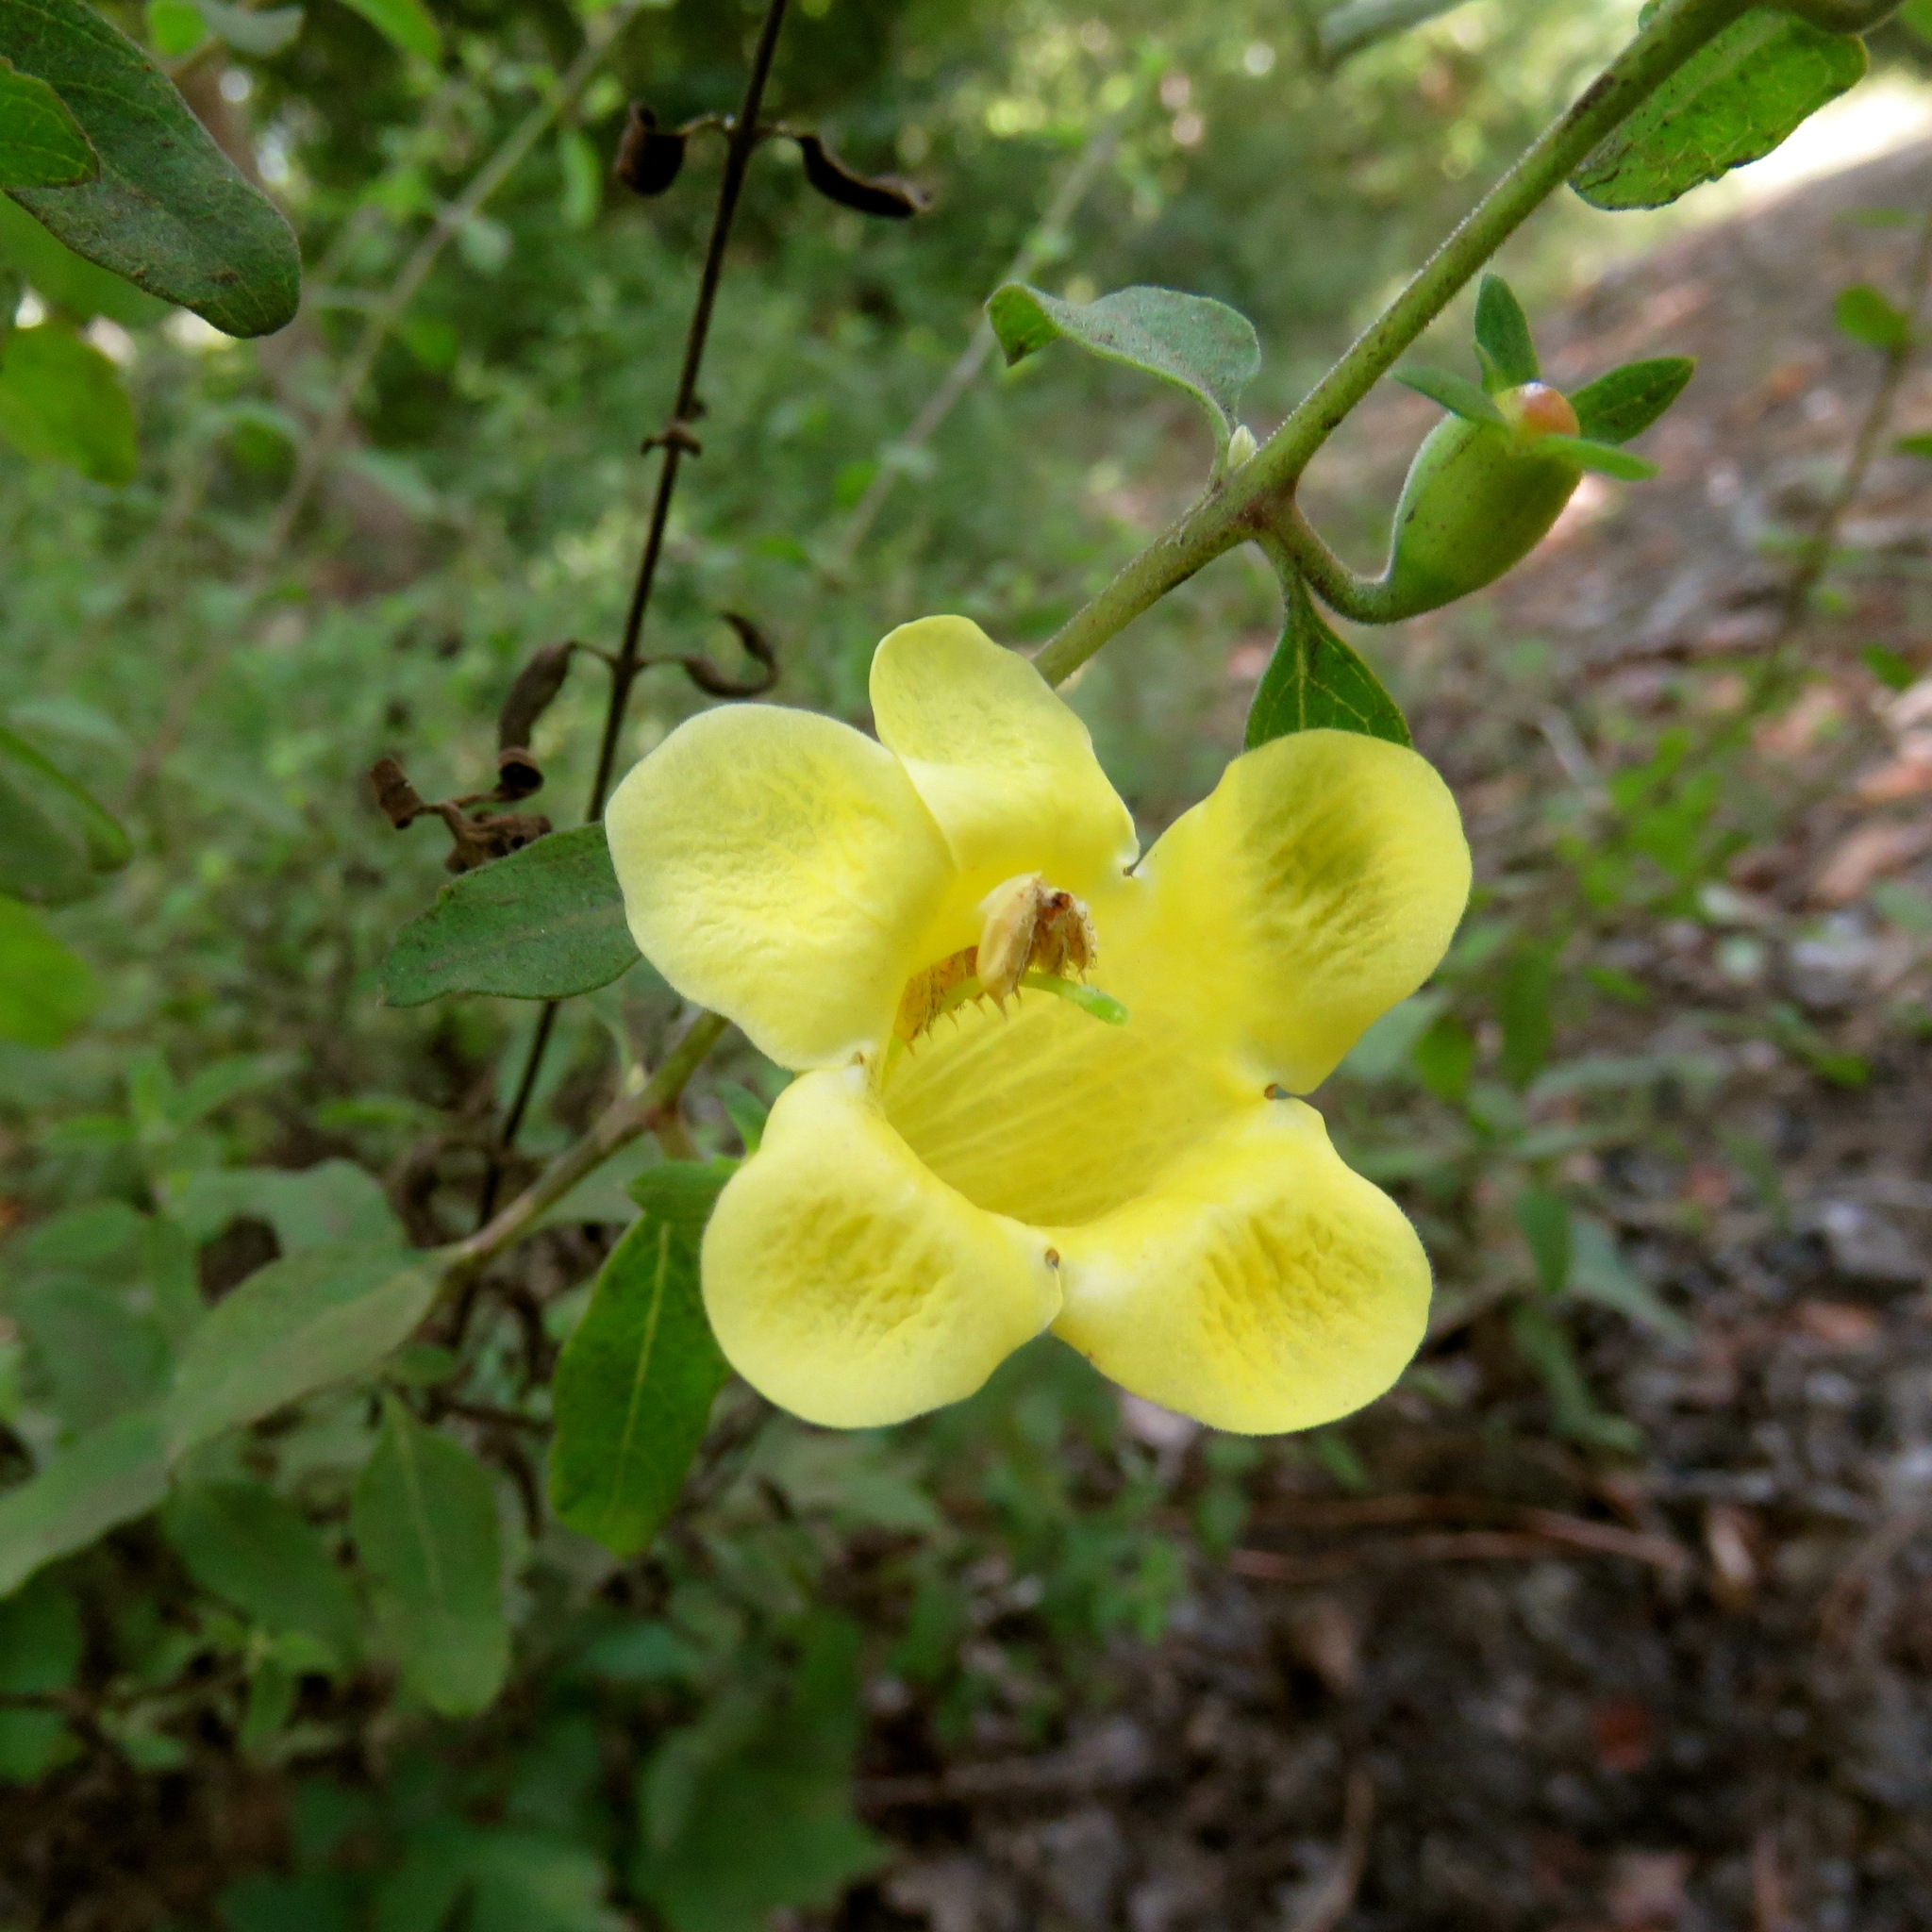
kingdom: Plantae
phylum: Tracheophyta
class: Magnoliopsida
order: Lamiales
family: Orobanchaceae
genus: Aureolaria
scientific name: Aureolaria grandiflora
